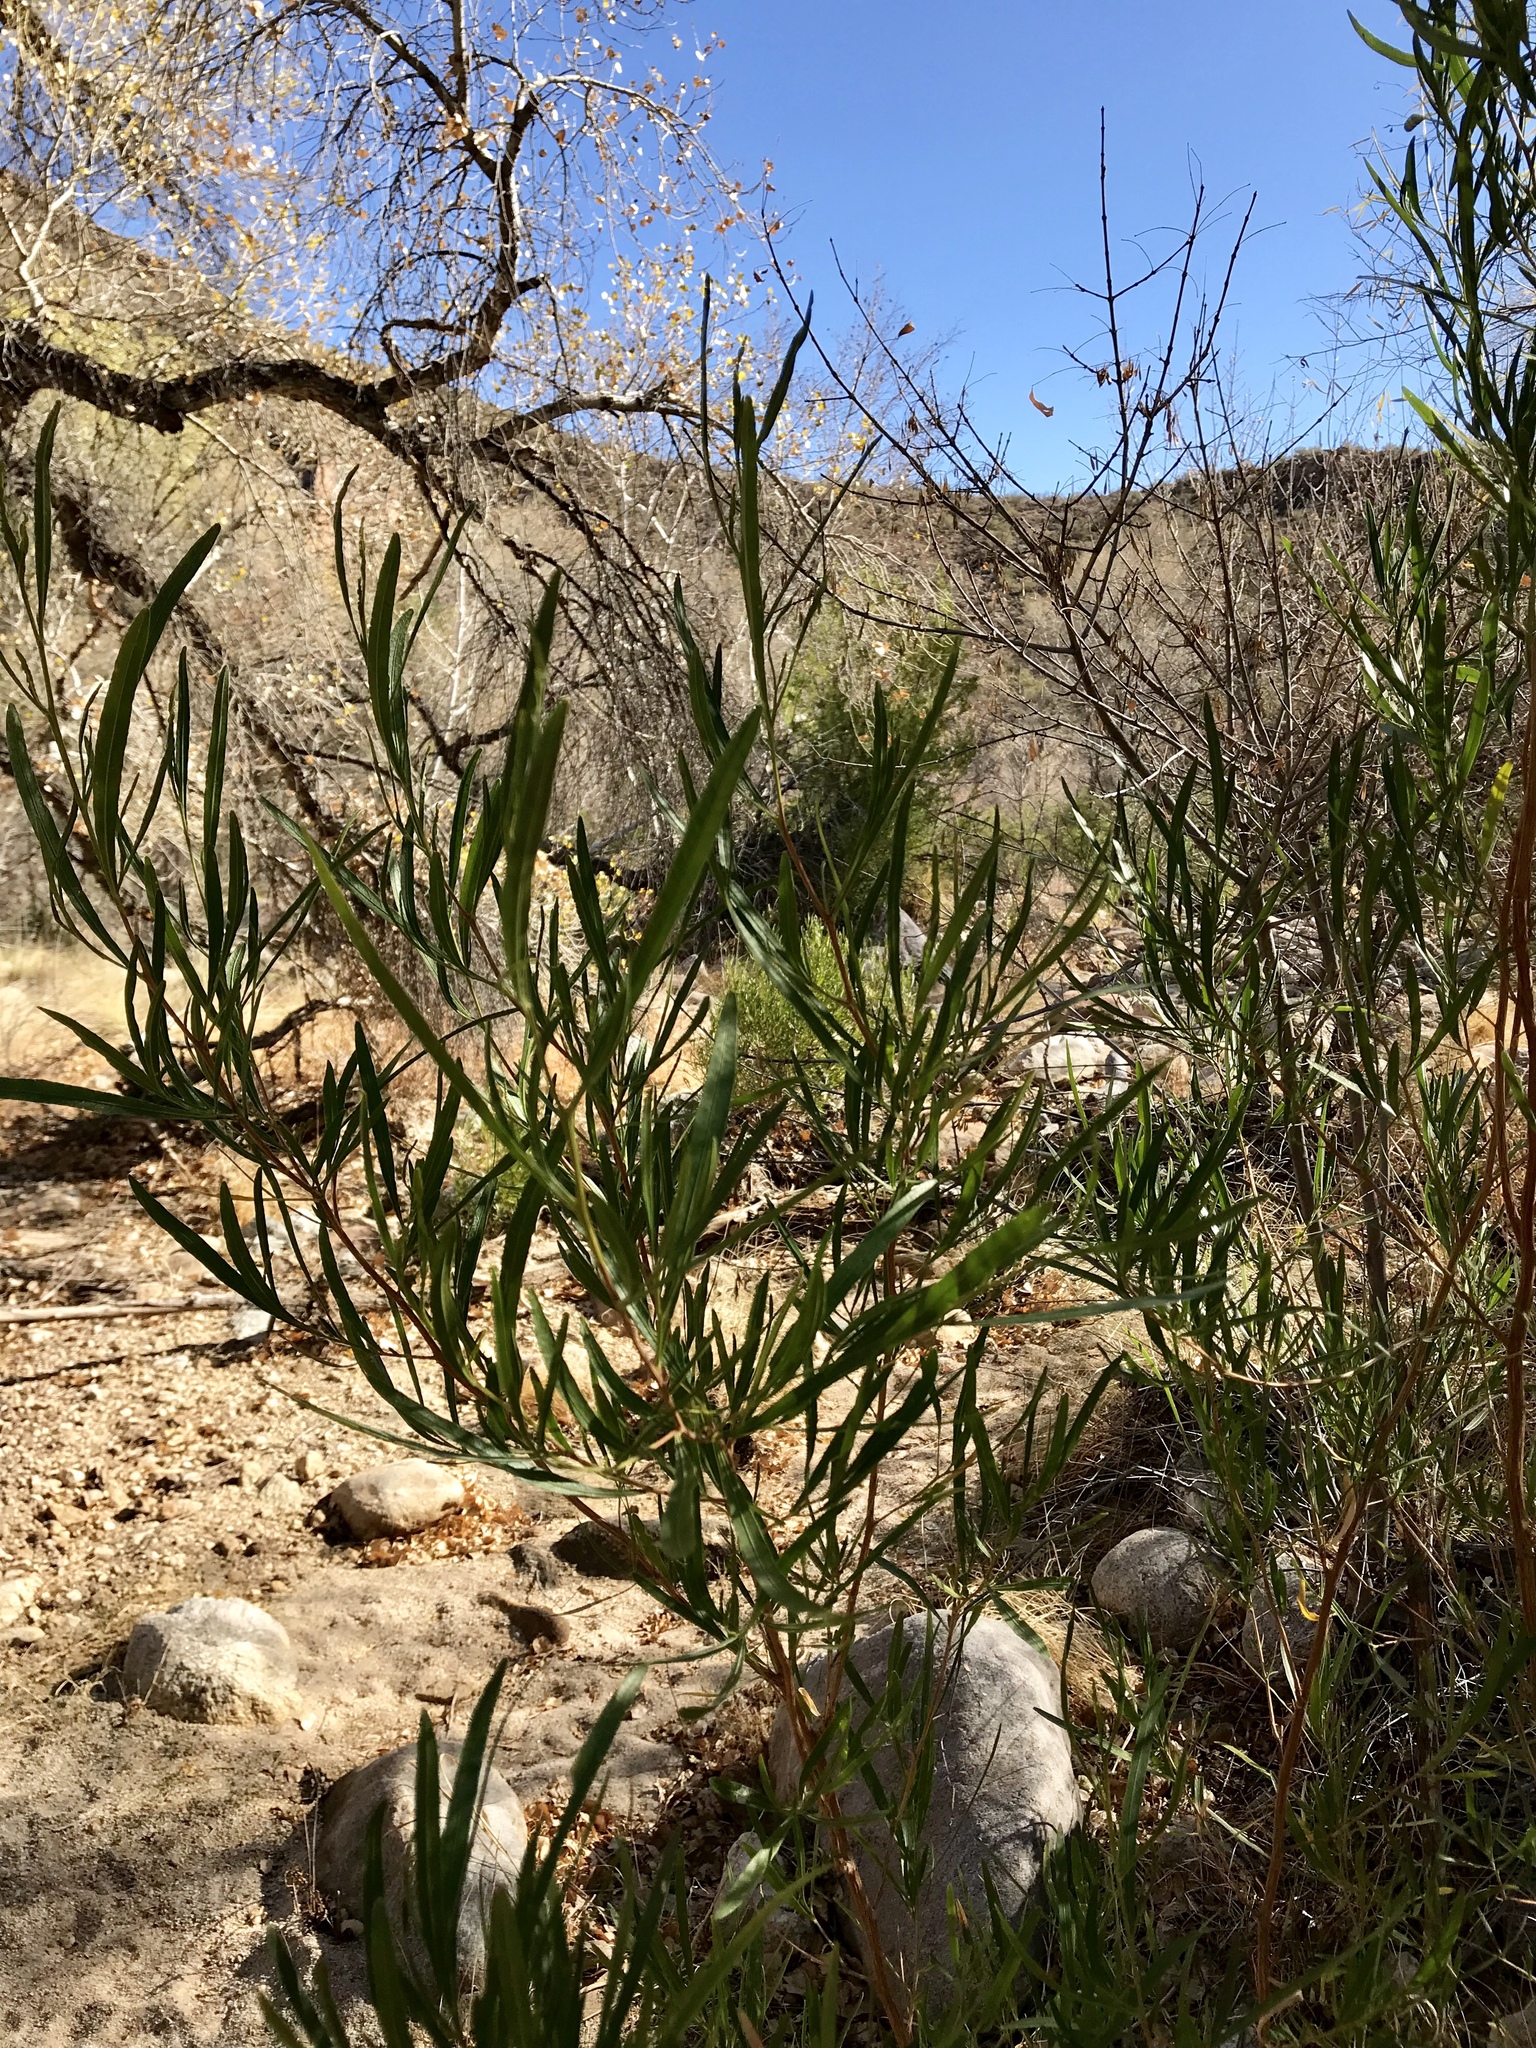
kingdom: Plantae
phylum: Tracheophyta
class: Magnoliopsida
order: Sapindales
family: Sapindaceae
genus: Dodonaea
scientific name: Dodonaea viscosa
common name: Hopbush
